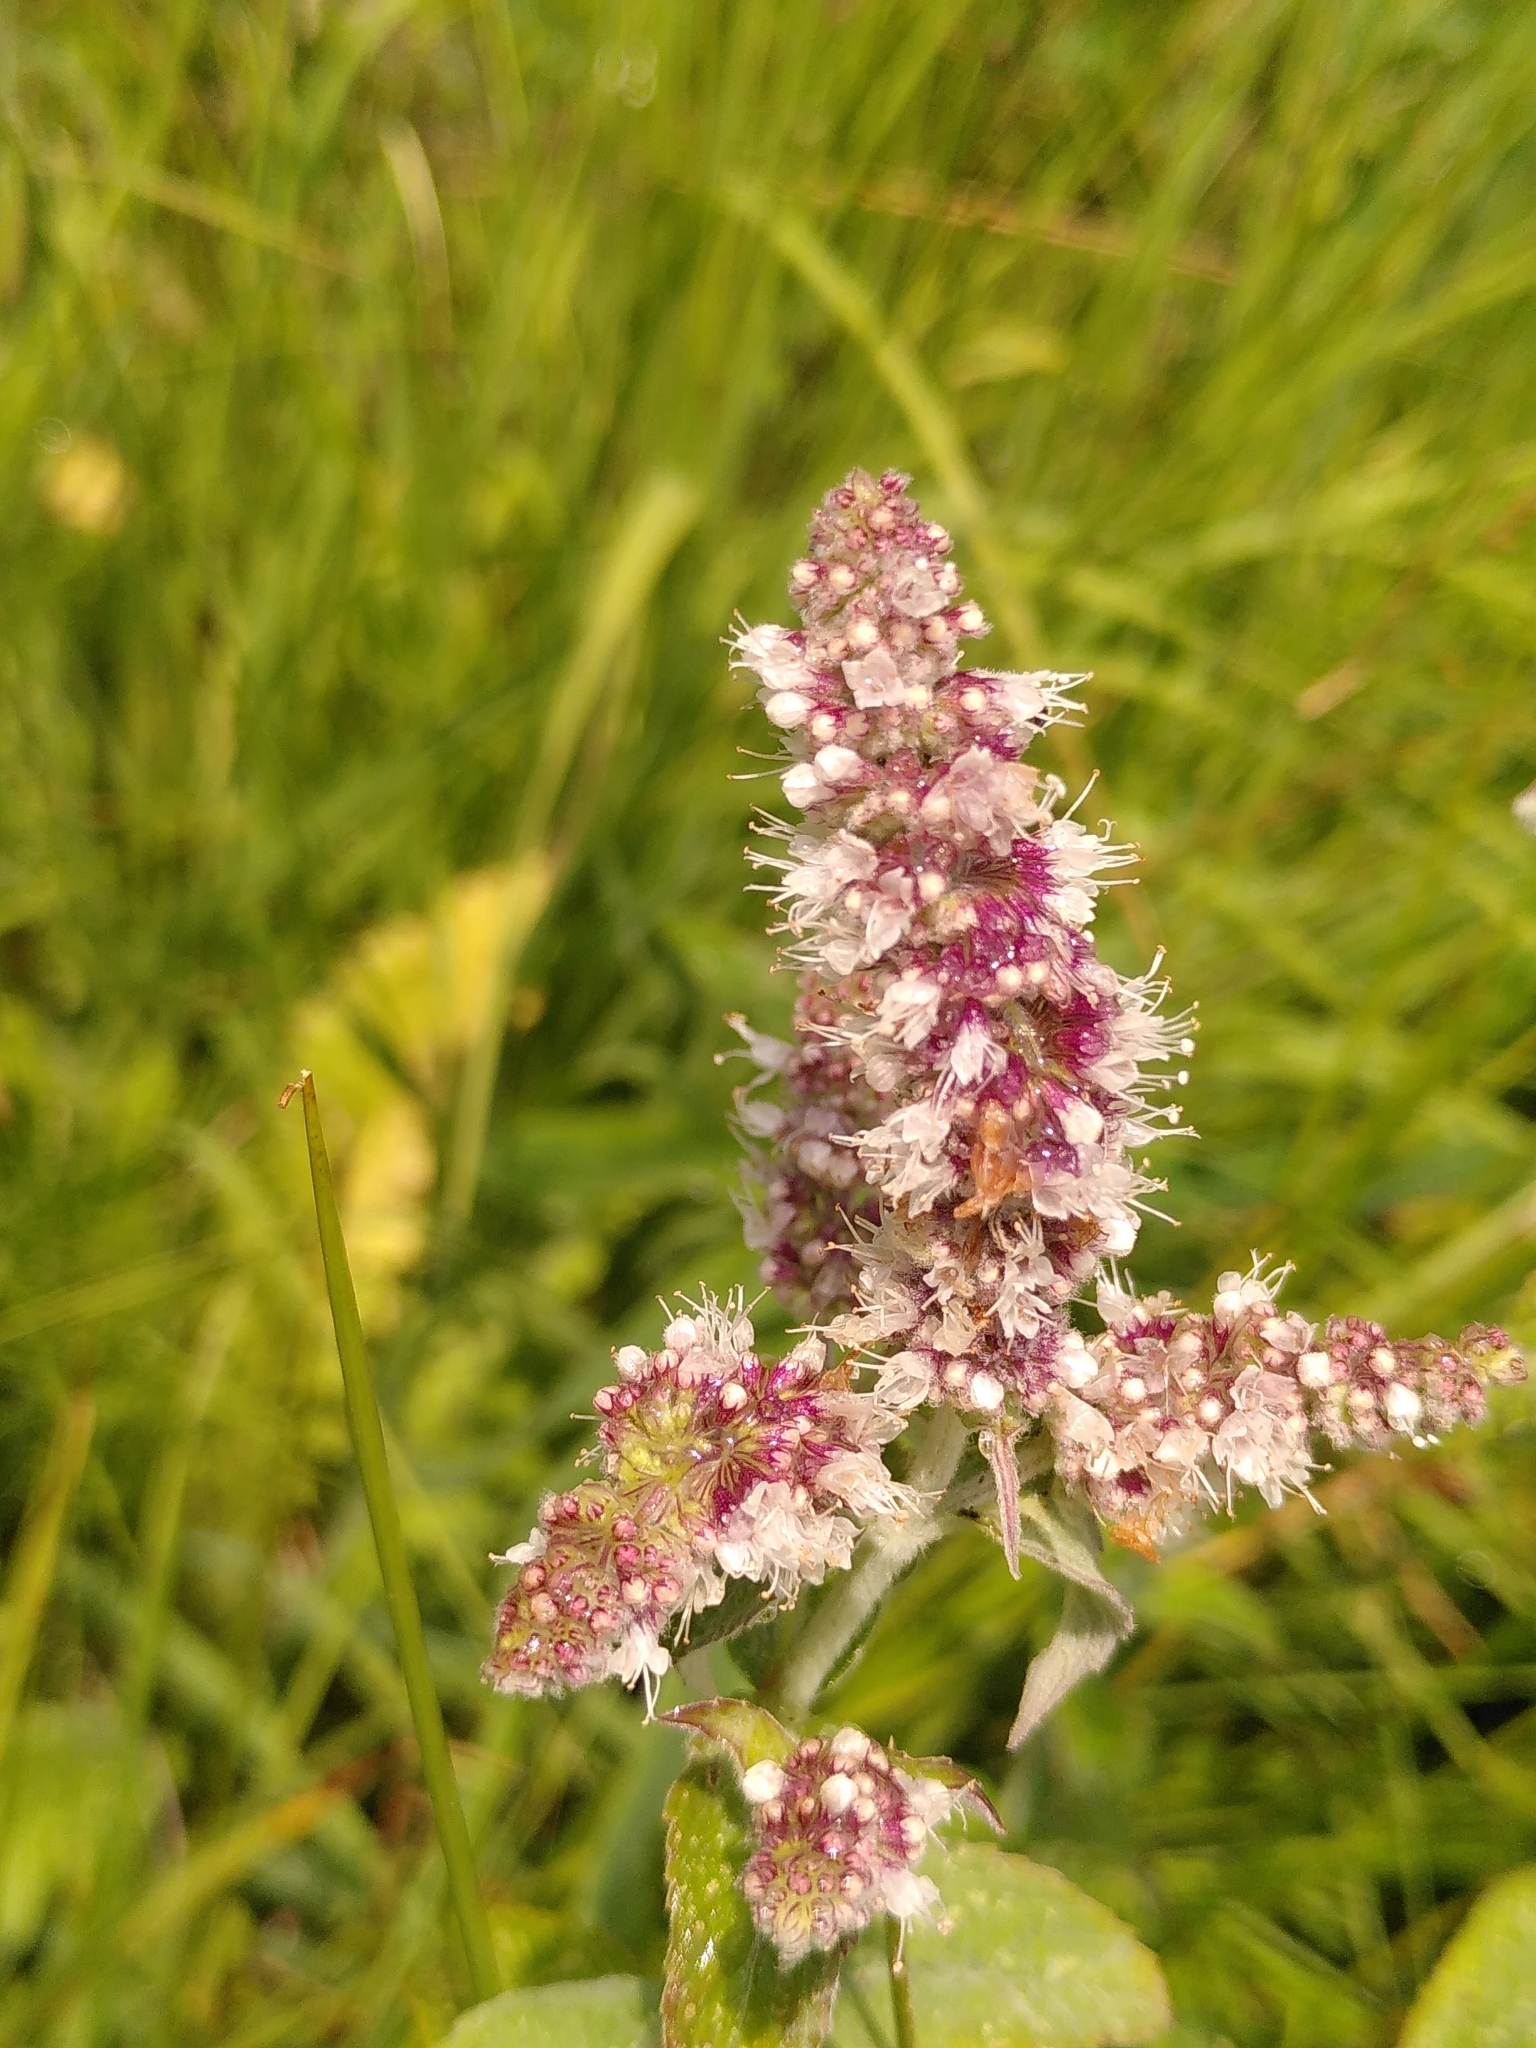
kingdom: Plantae
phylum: Tracheophyta
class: Magnoliopsida
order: Lamiales
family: Lamiaceae
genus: Mentha
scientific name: Mentha longifolia
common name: Horse mint
